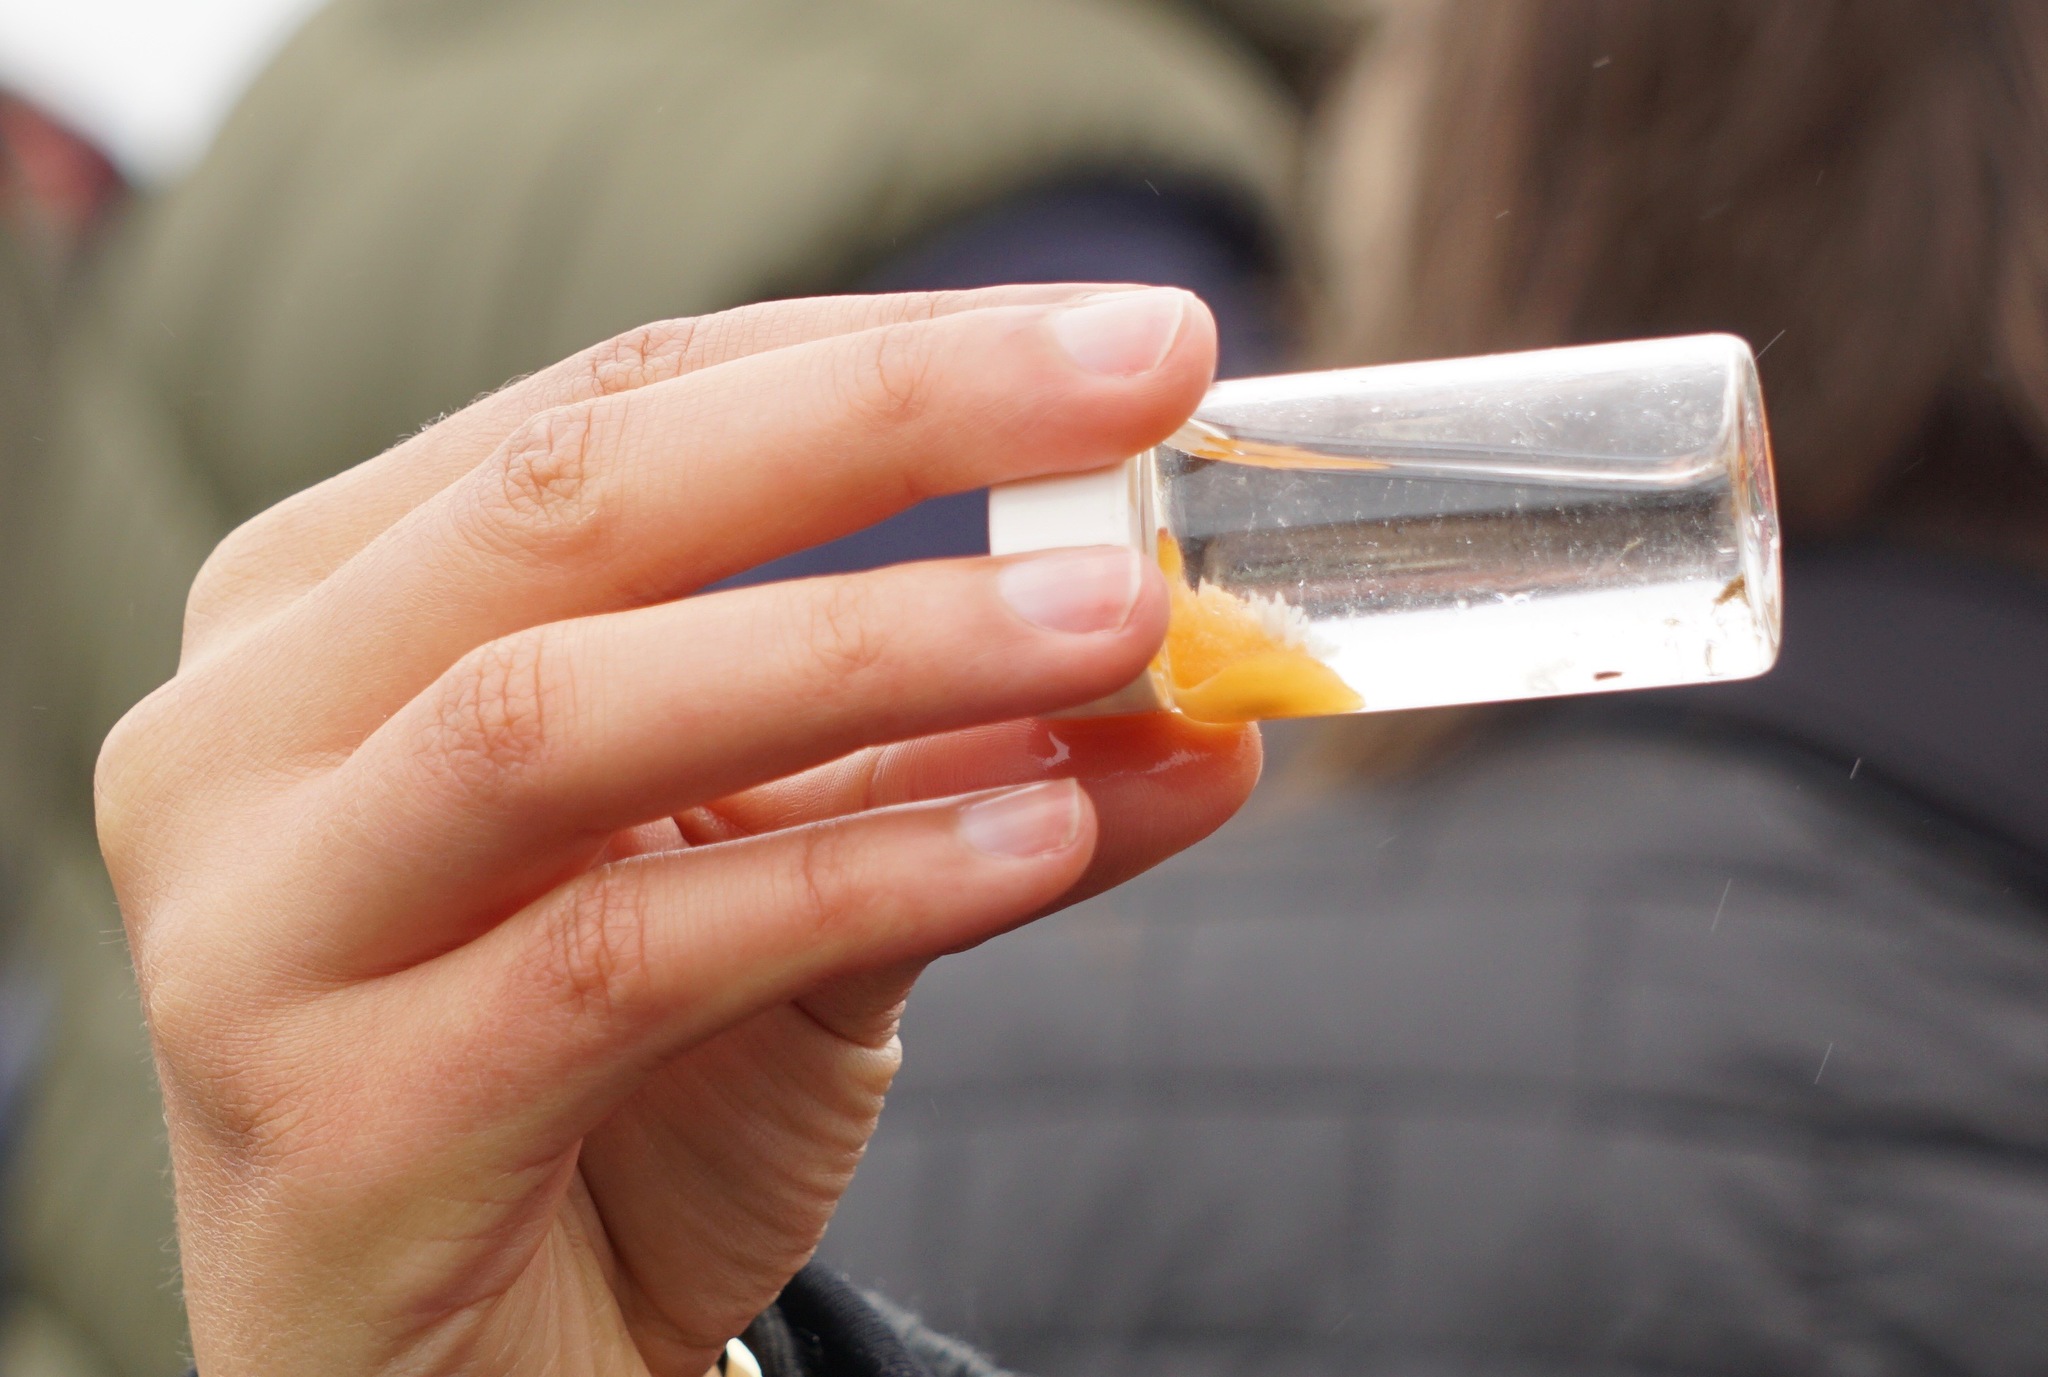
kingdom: Animalia
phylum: Mollusca
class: Gastropoda
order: Nudibranchia
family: Onchidorididae
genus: Acanthodoris
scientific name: Acanthodoris lutea
